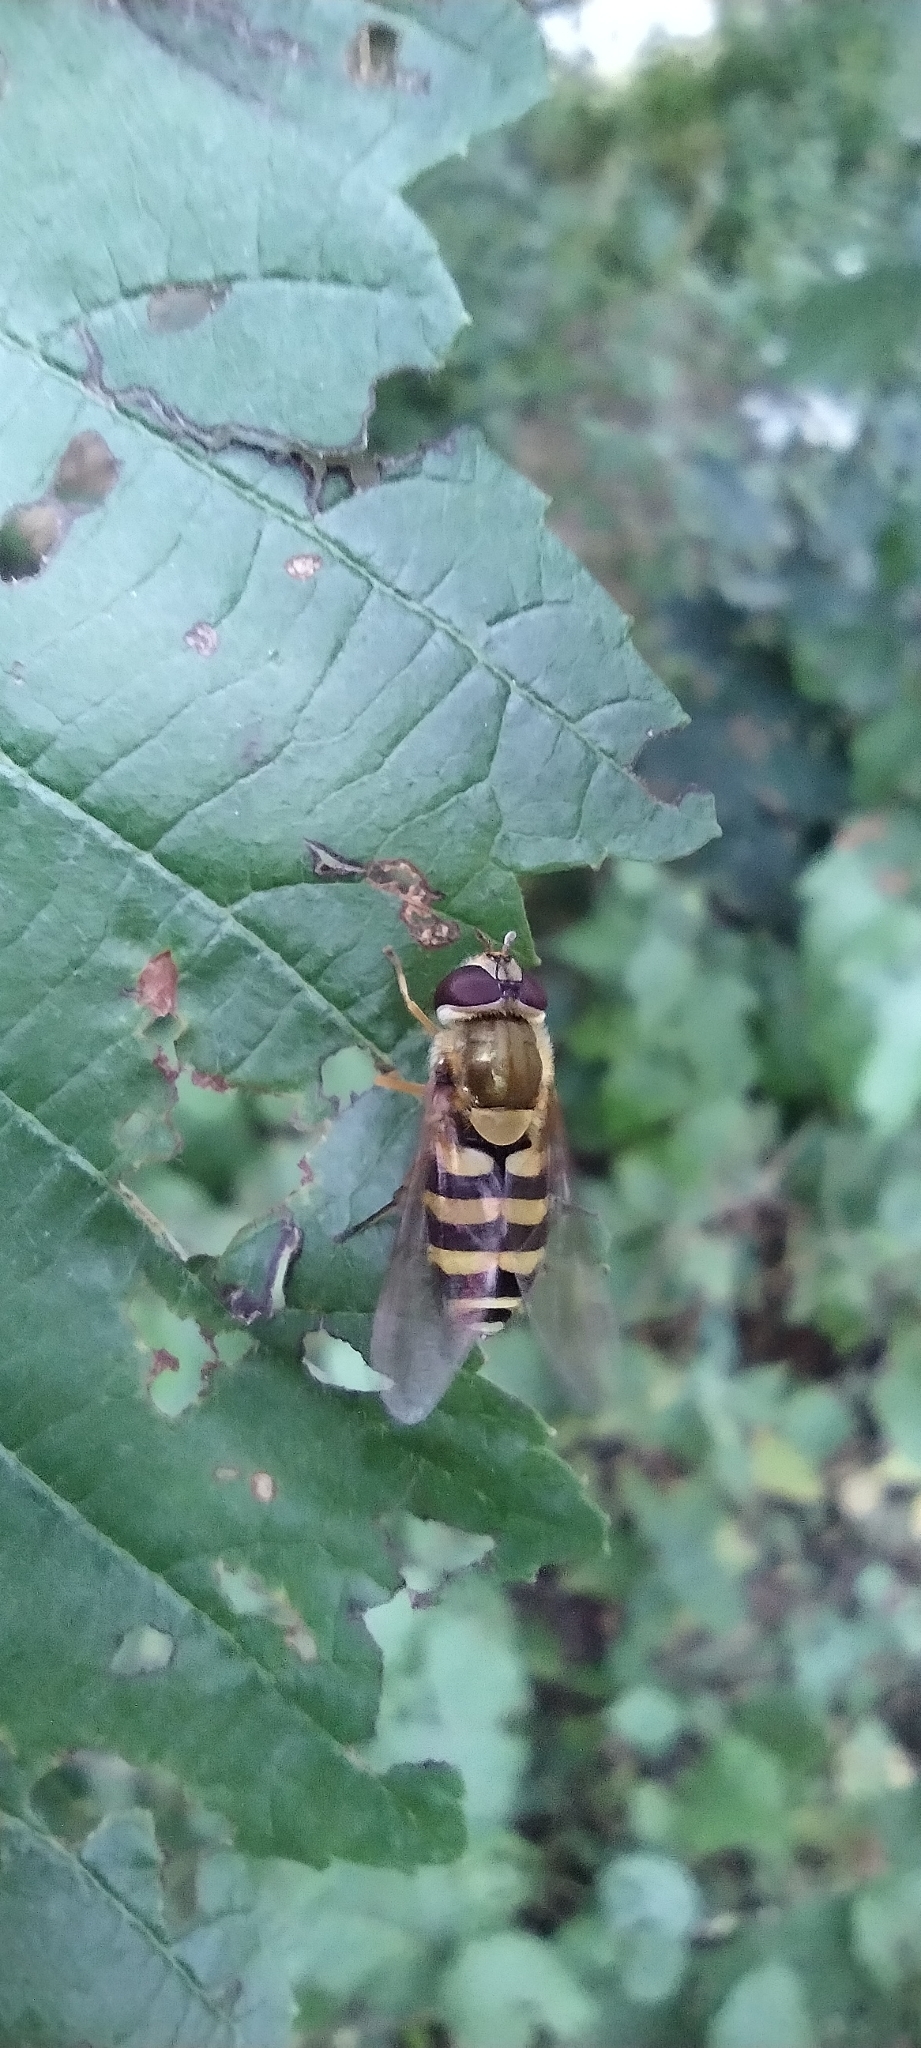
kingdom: Animalia
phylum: Arthropoda
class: Insecta
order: Diptera
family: Syrphidae
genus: Syrphus
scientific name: Syrphus
